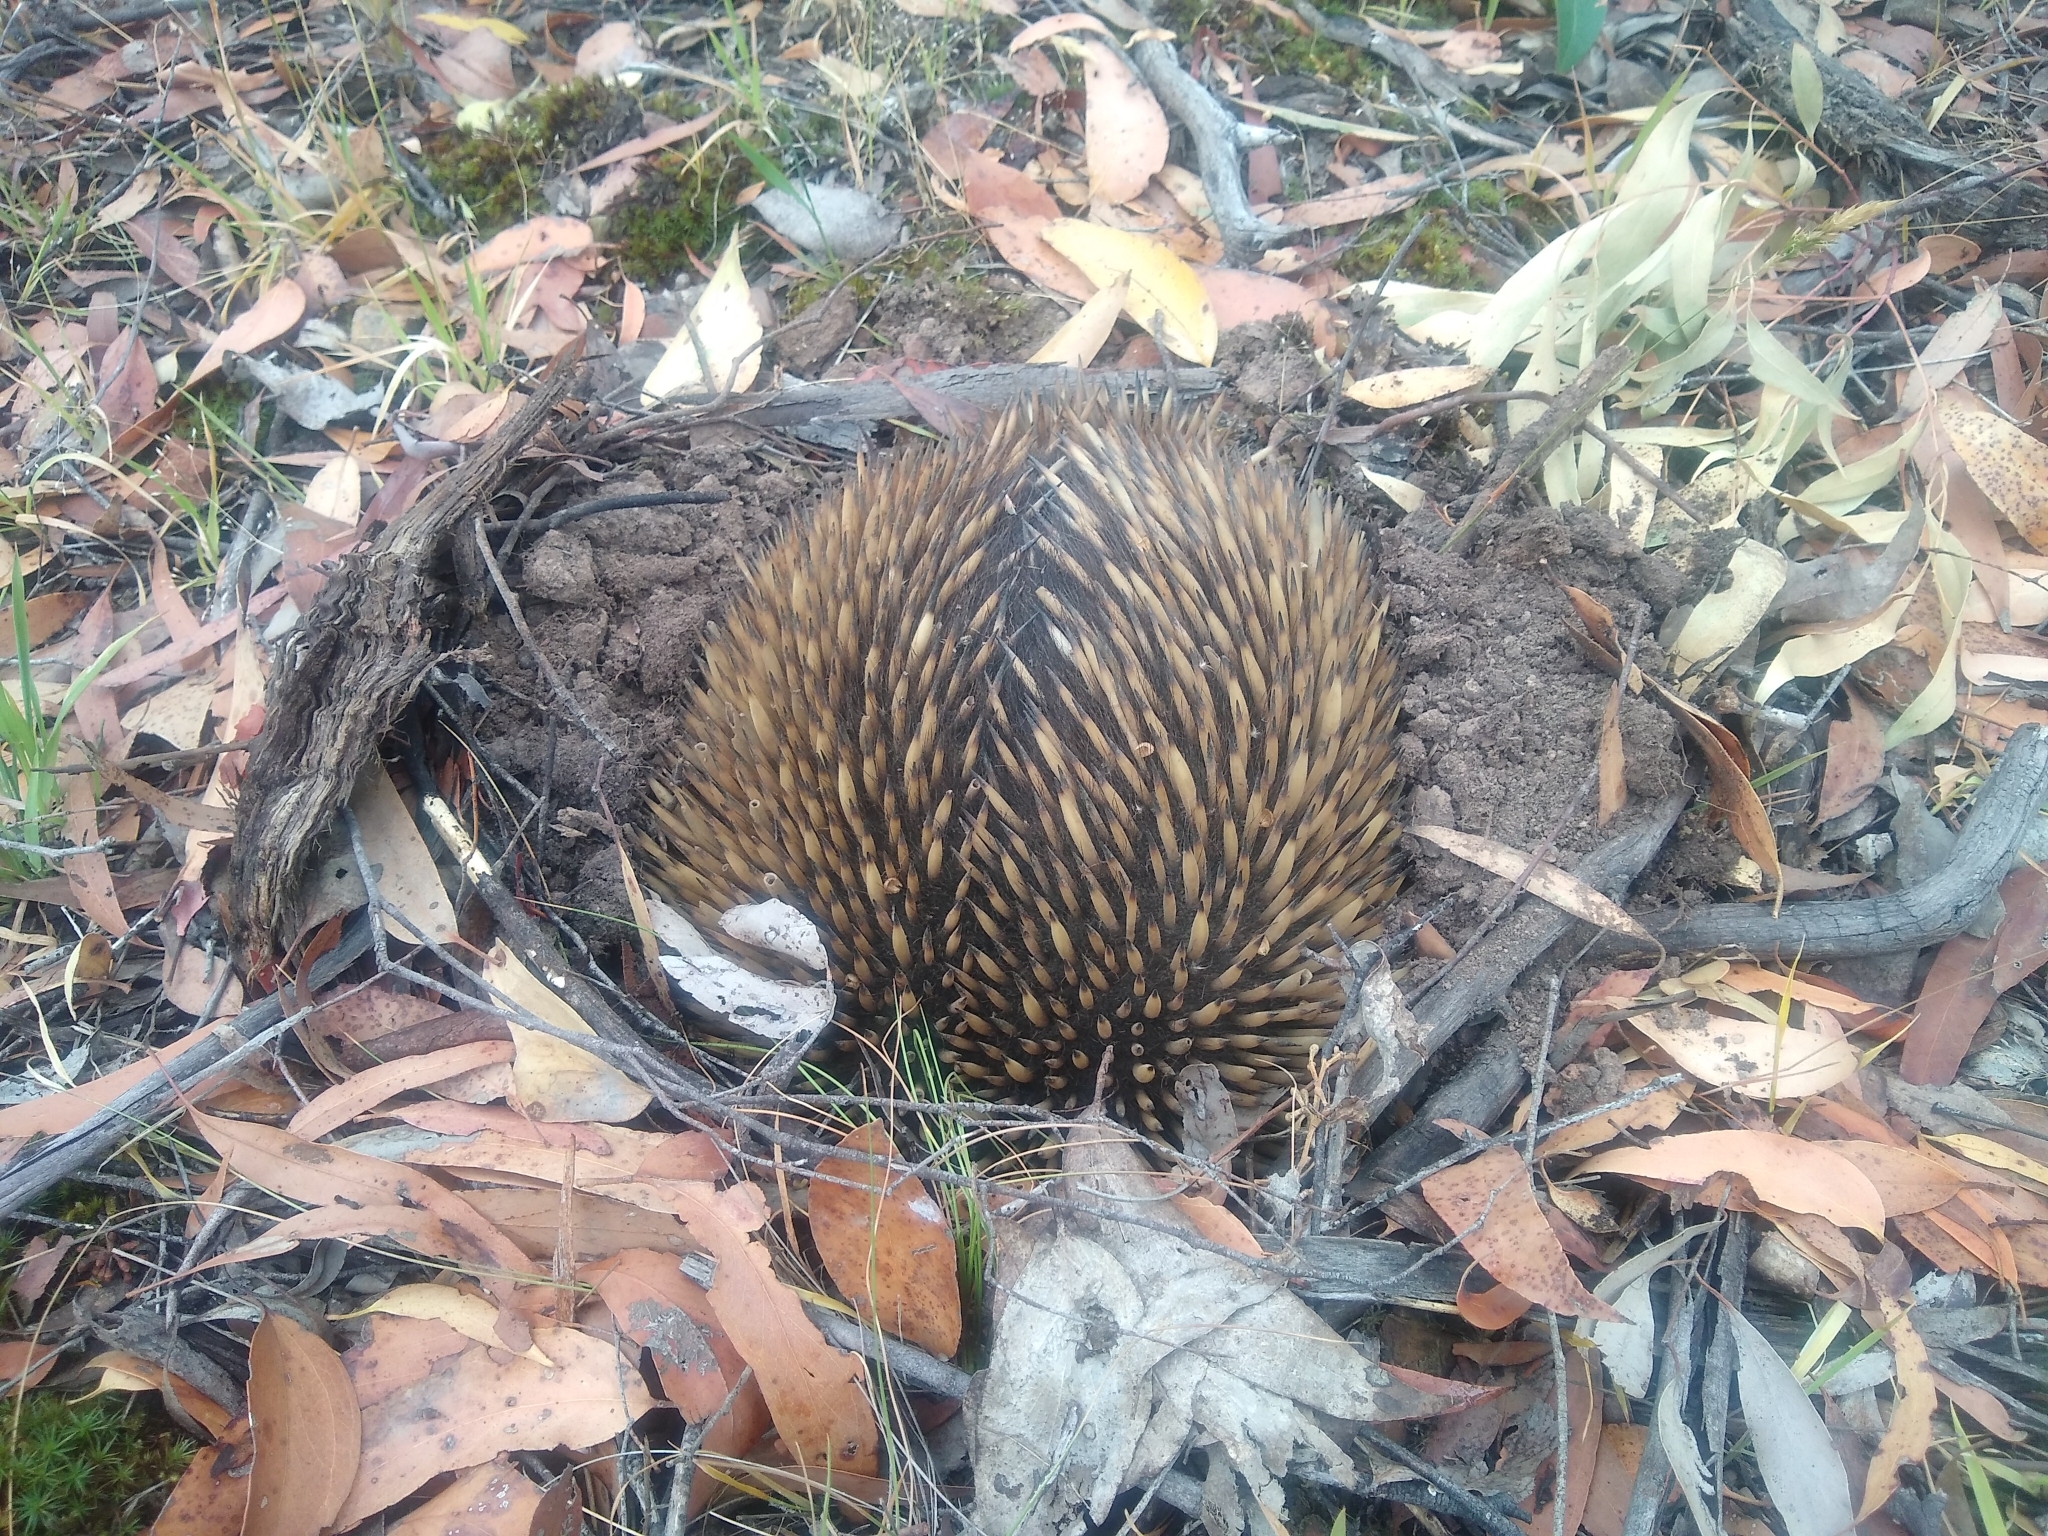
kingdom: Animalia
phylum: Chordata
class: Mammalia
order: Monotremata
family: Tachyglossidae
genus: Tachyglossus
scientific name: Tachyglossus aculeatus
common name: Short-beaked echidna
